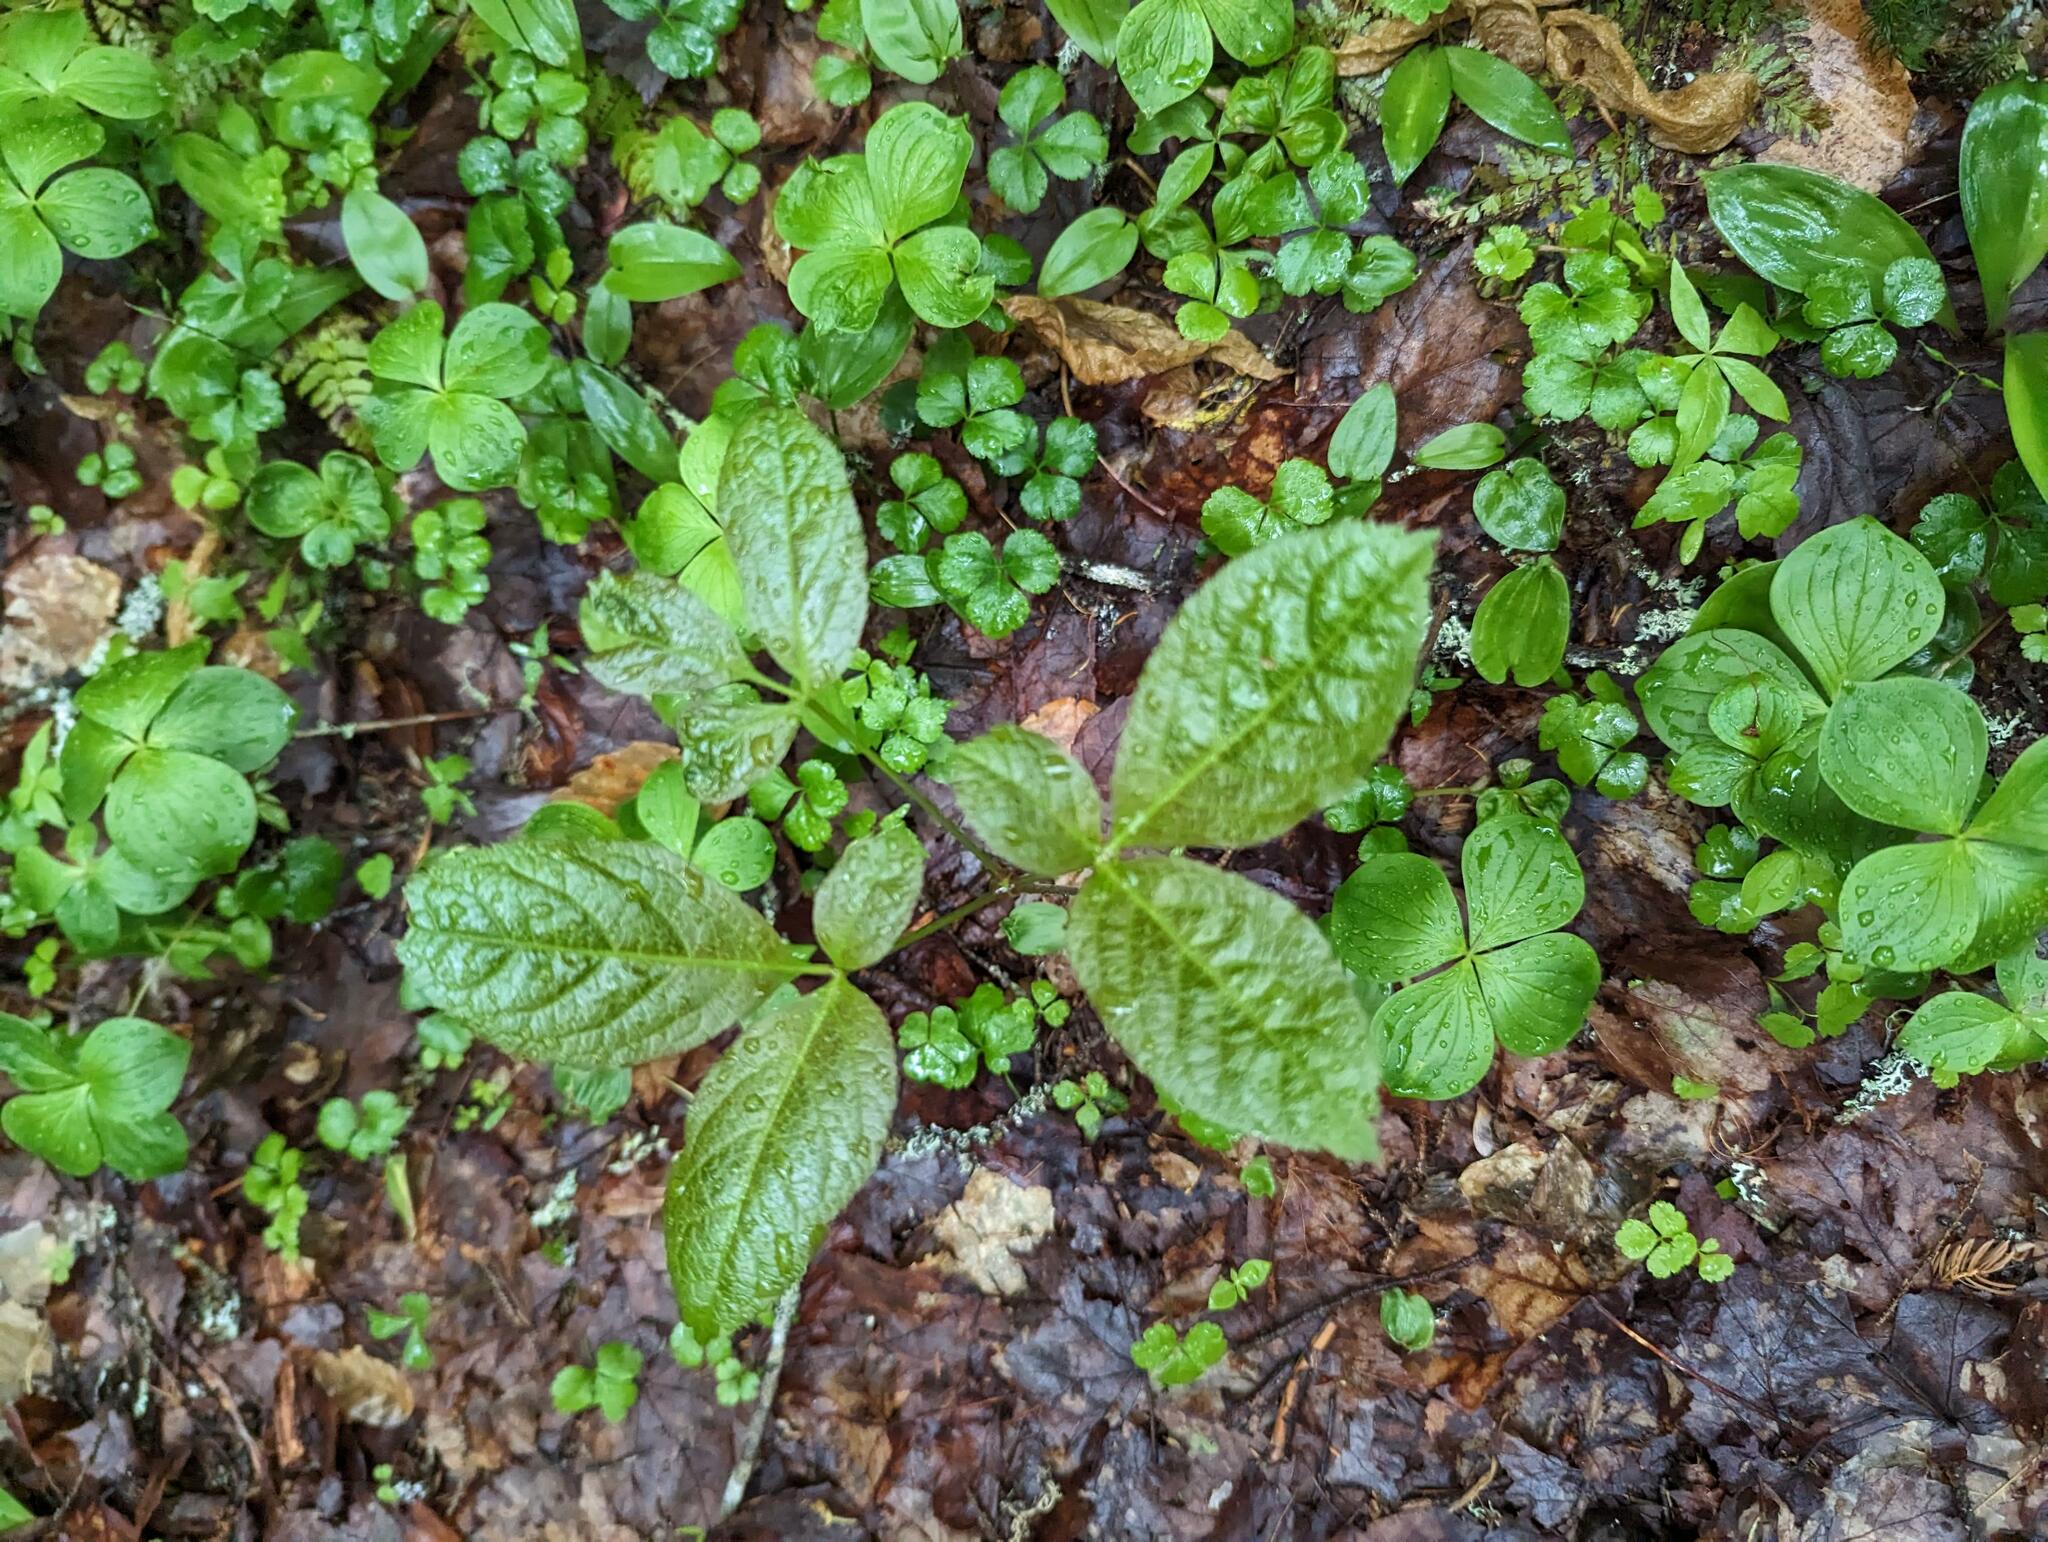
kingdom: Plantae
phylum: Tracheophyta
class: Magnoliopsida
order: Apiales
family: Araliaceae
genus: Aralia
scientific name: Aralia nudicaulis
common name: Wild sarsaparilla
